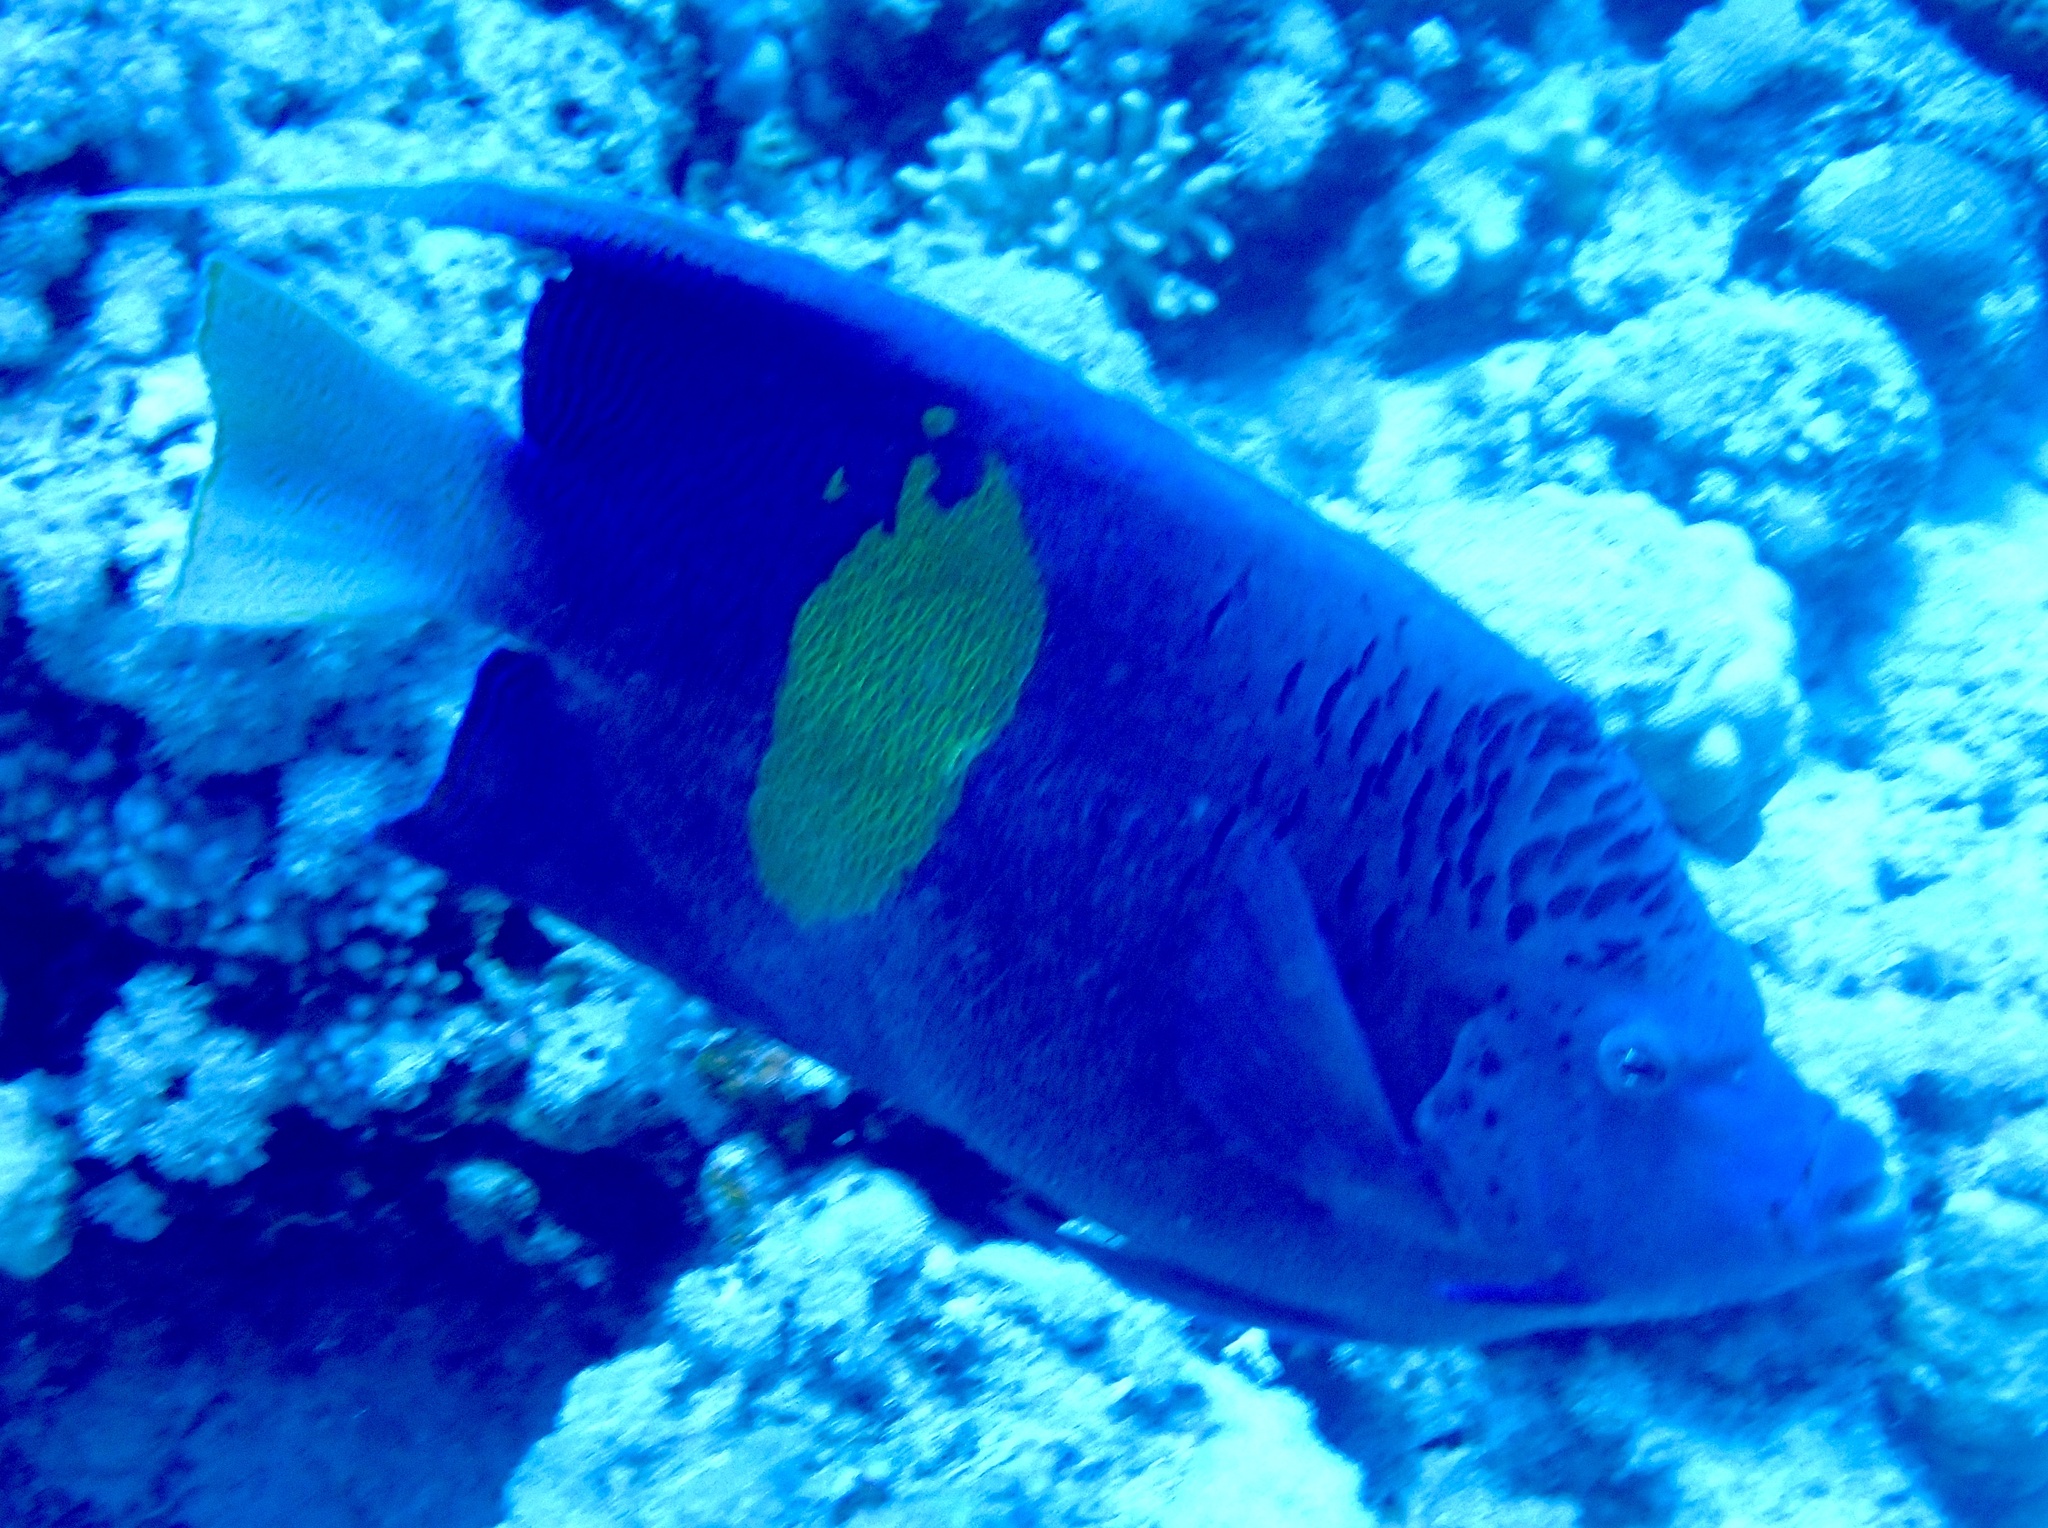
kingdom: Animalia
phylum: Chordata
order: Perciformes
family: Pomacanthidae
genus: Pomacanthus
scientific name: Pomacanthus maculosus
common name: Yellowbar angelfish
